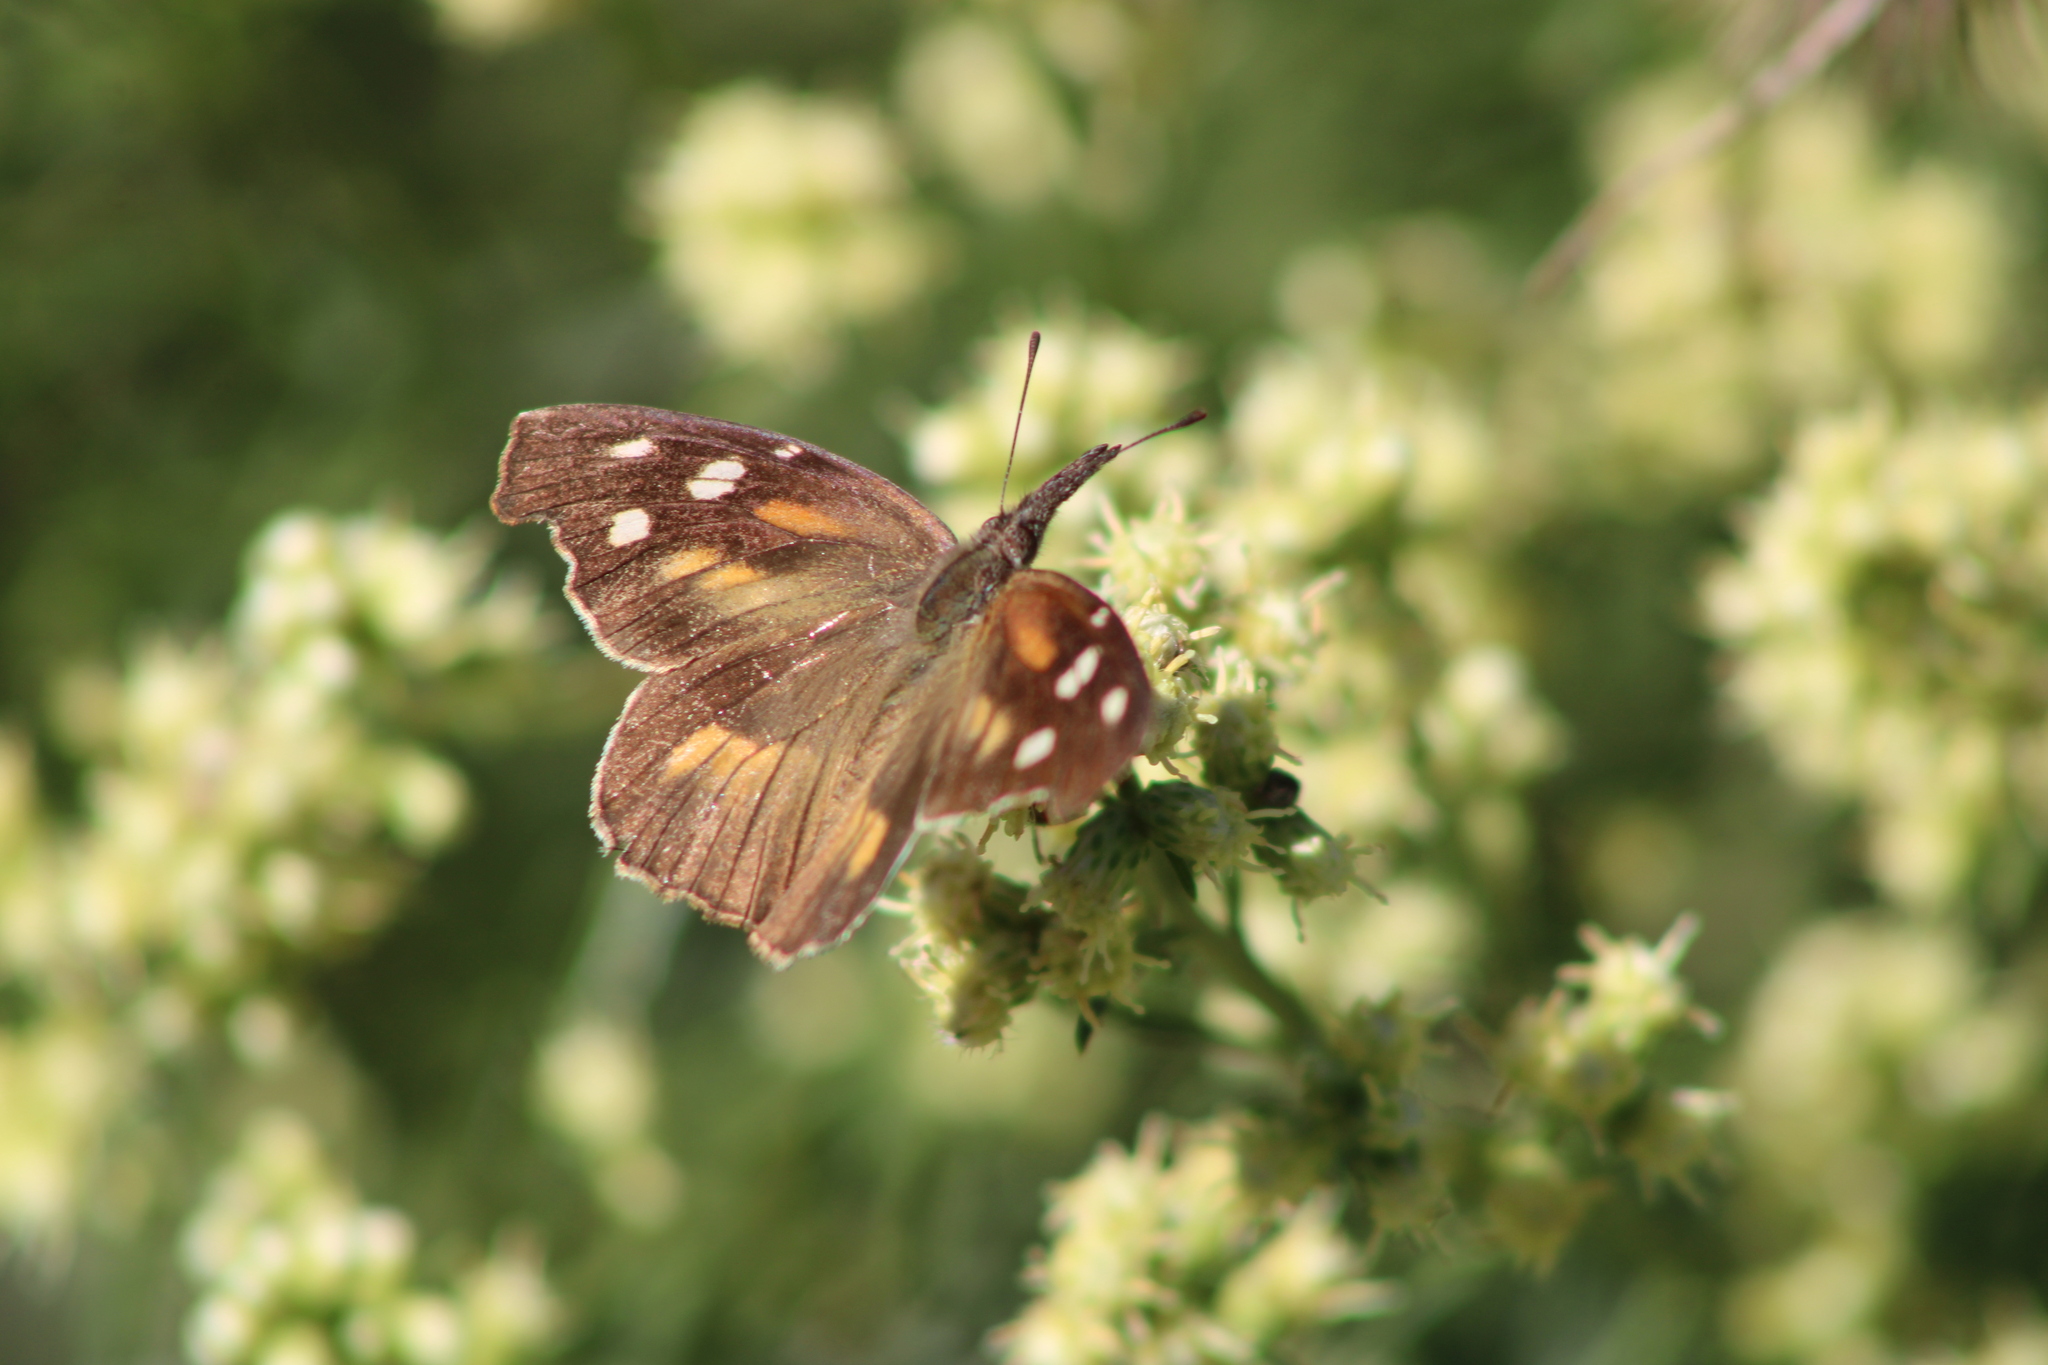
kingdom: Animalia
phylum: Arthropoda
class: Insecta
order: Lepidoptera
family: Nymphalidae
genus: Libytheana
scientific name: Libytheana carinenta
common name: American snout
